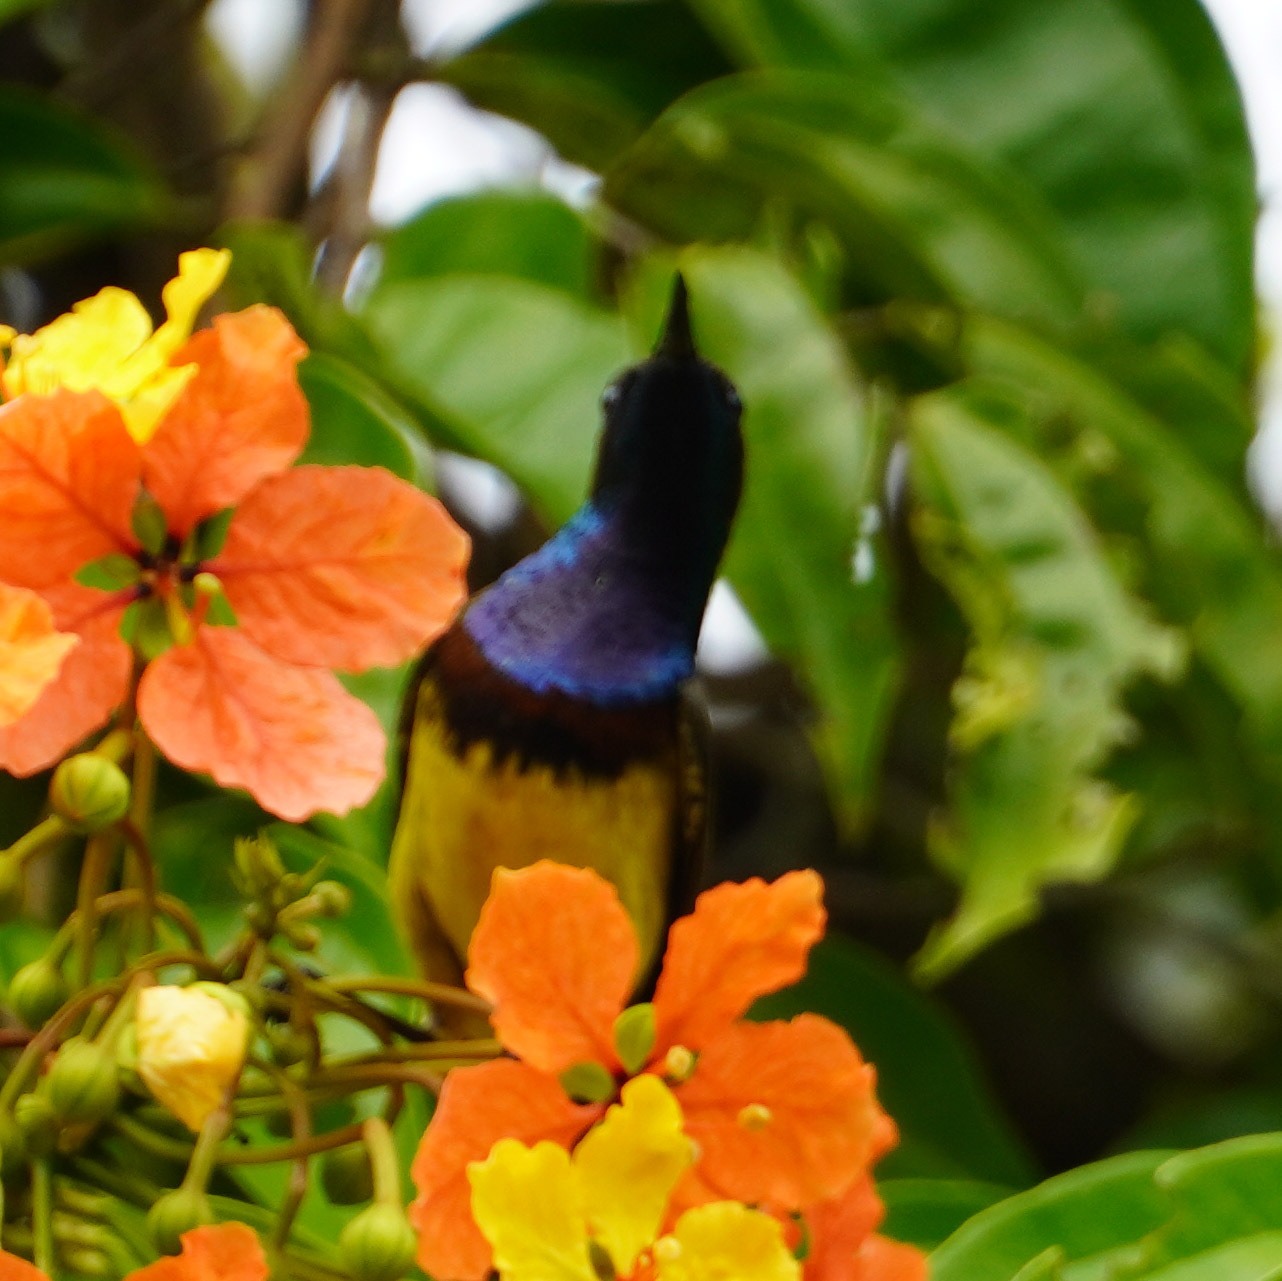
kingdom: Animalia
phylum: Chordata
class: Aves
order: Passeriformes
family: Nectariniidae
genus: Cinnyris
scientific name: Cinnyris
